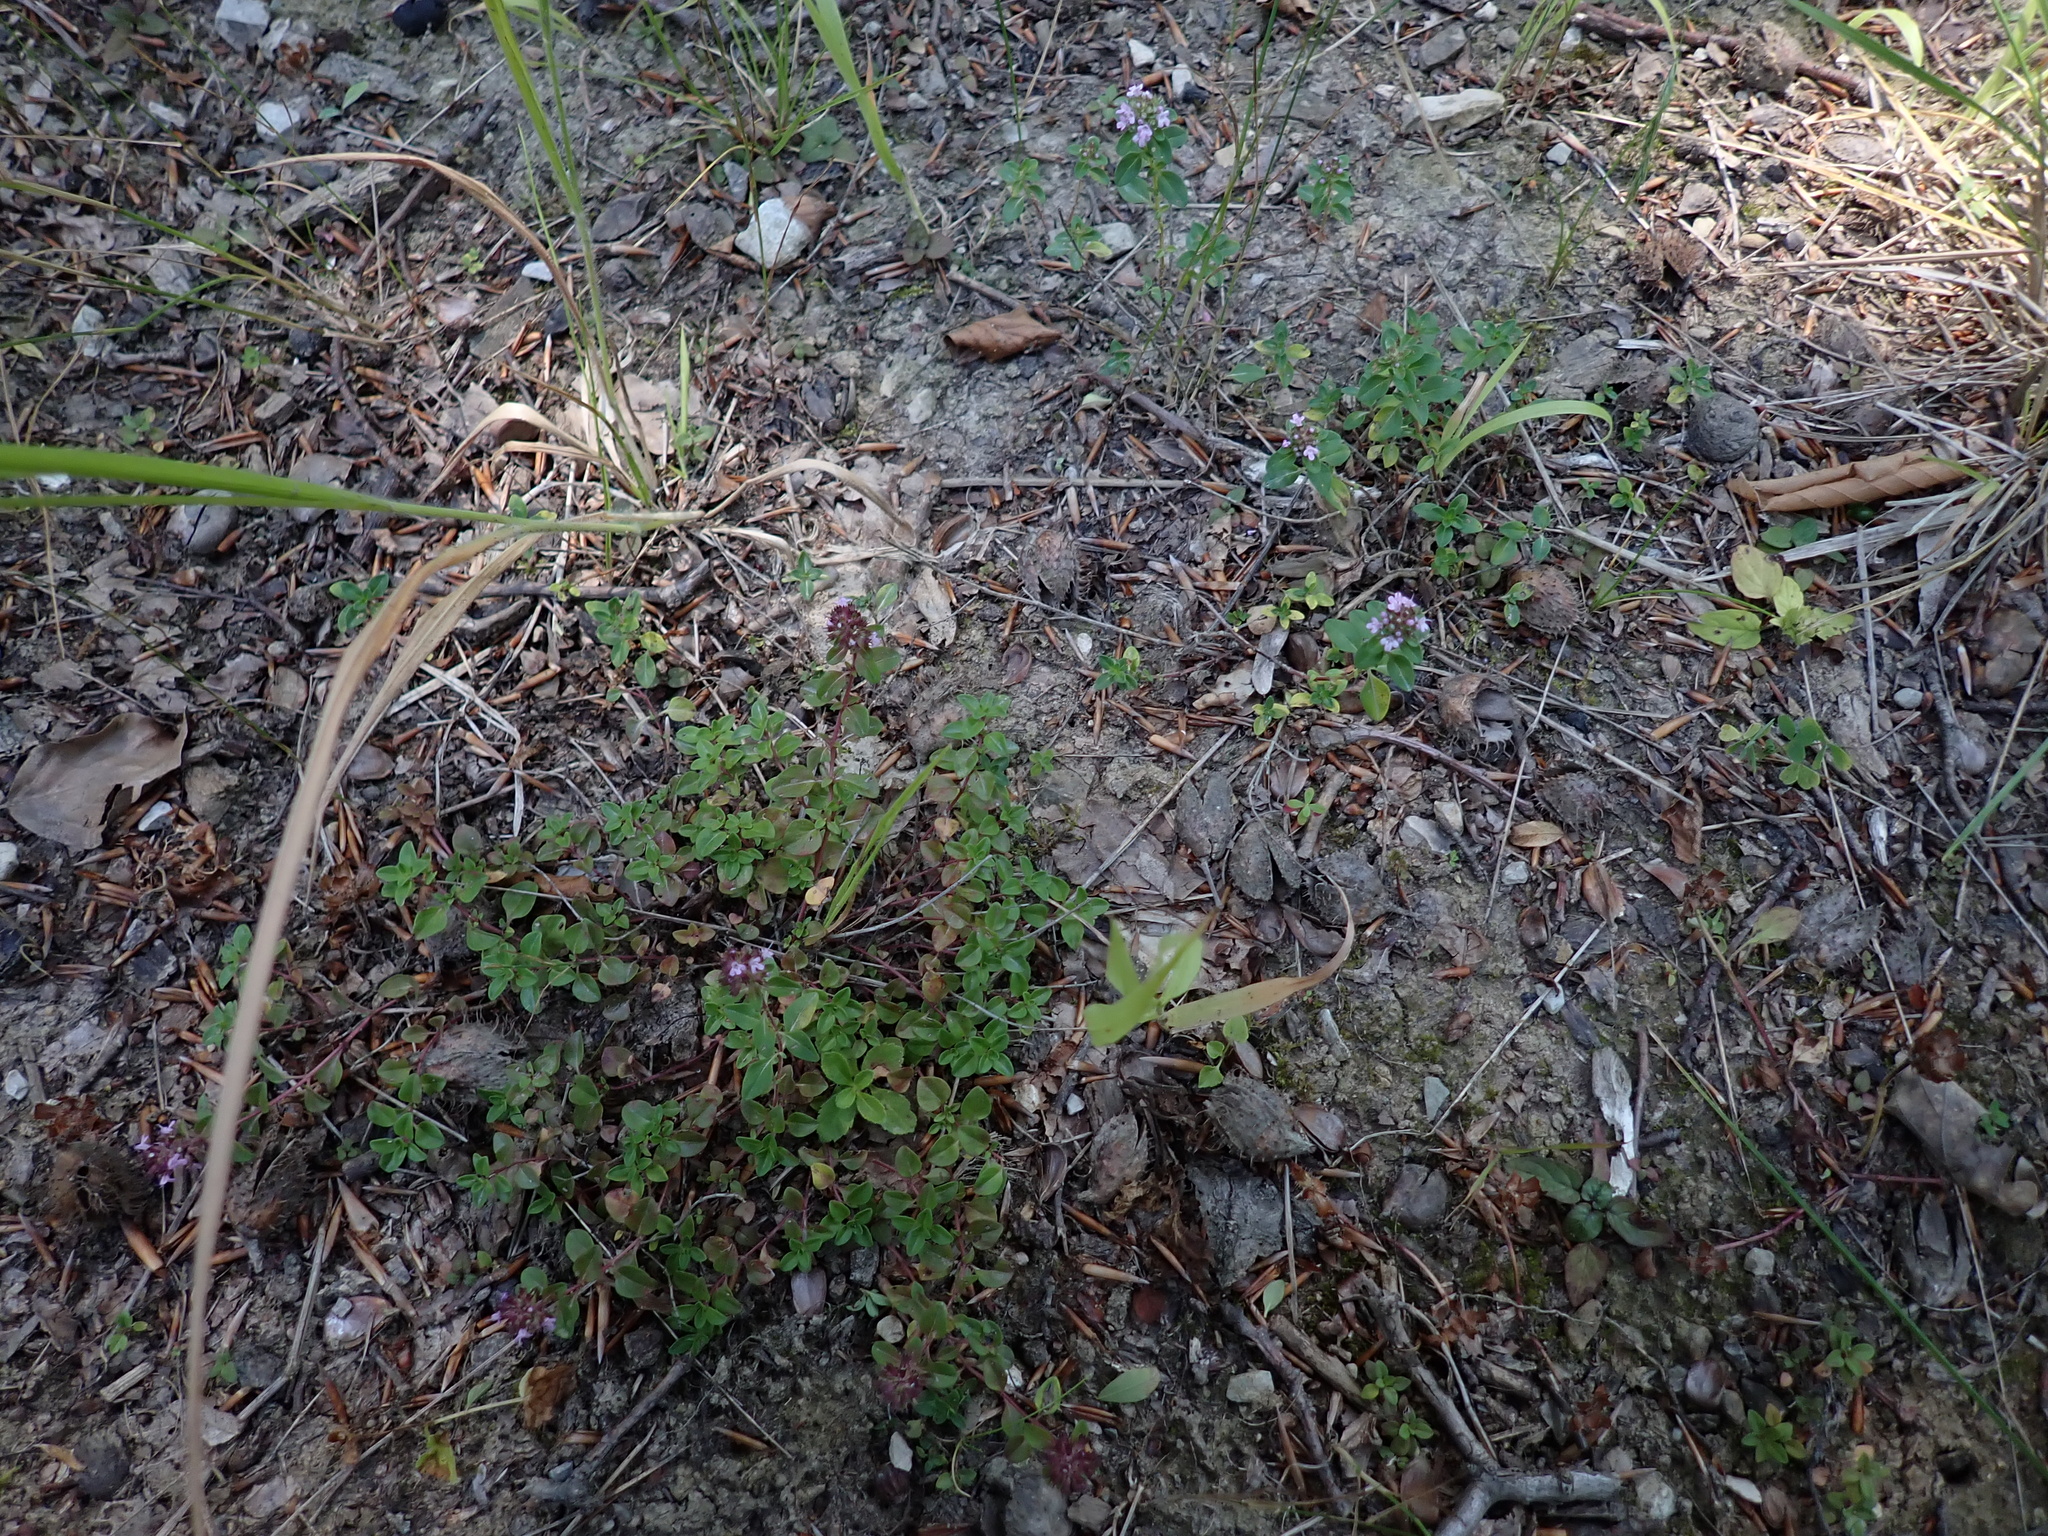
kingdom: Plantae
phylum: Tracheophyta
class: Magnoliopsida
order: Lamiales
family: Lamiaceae
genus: Thymus
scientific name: Thymus pulegioides
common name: Large thyme
